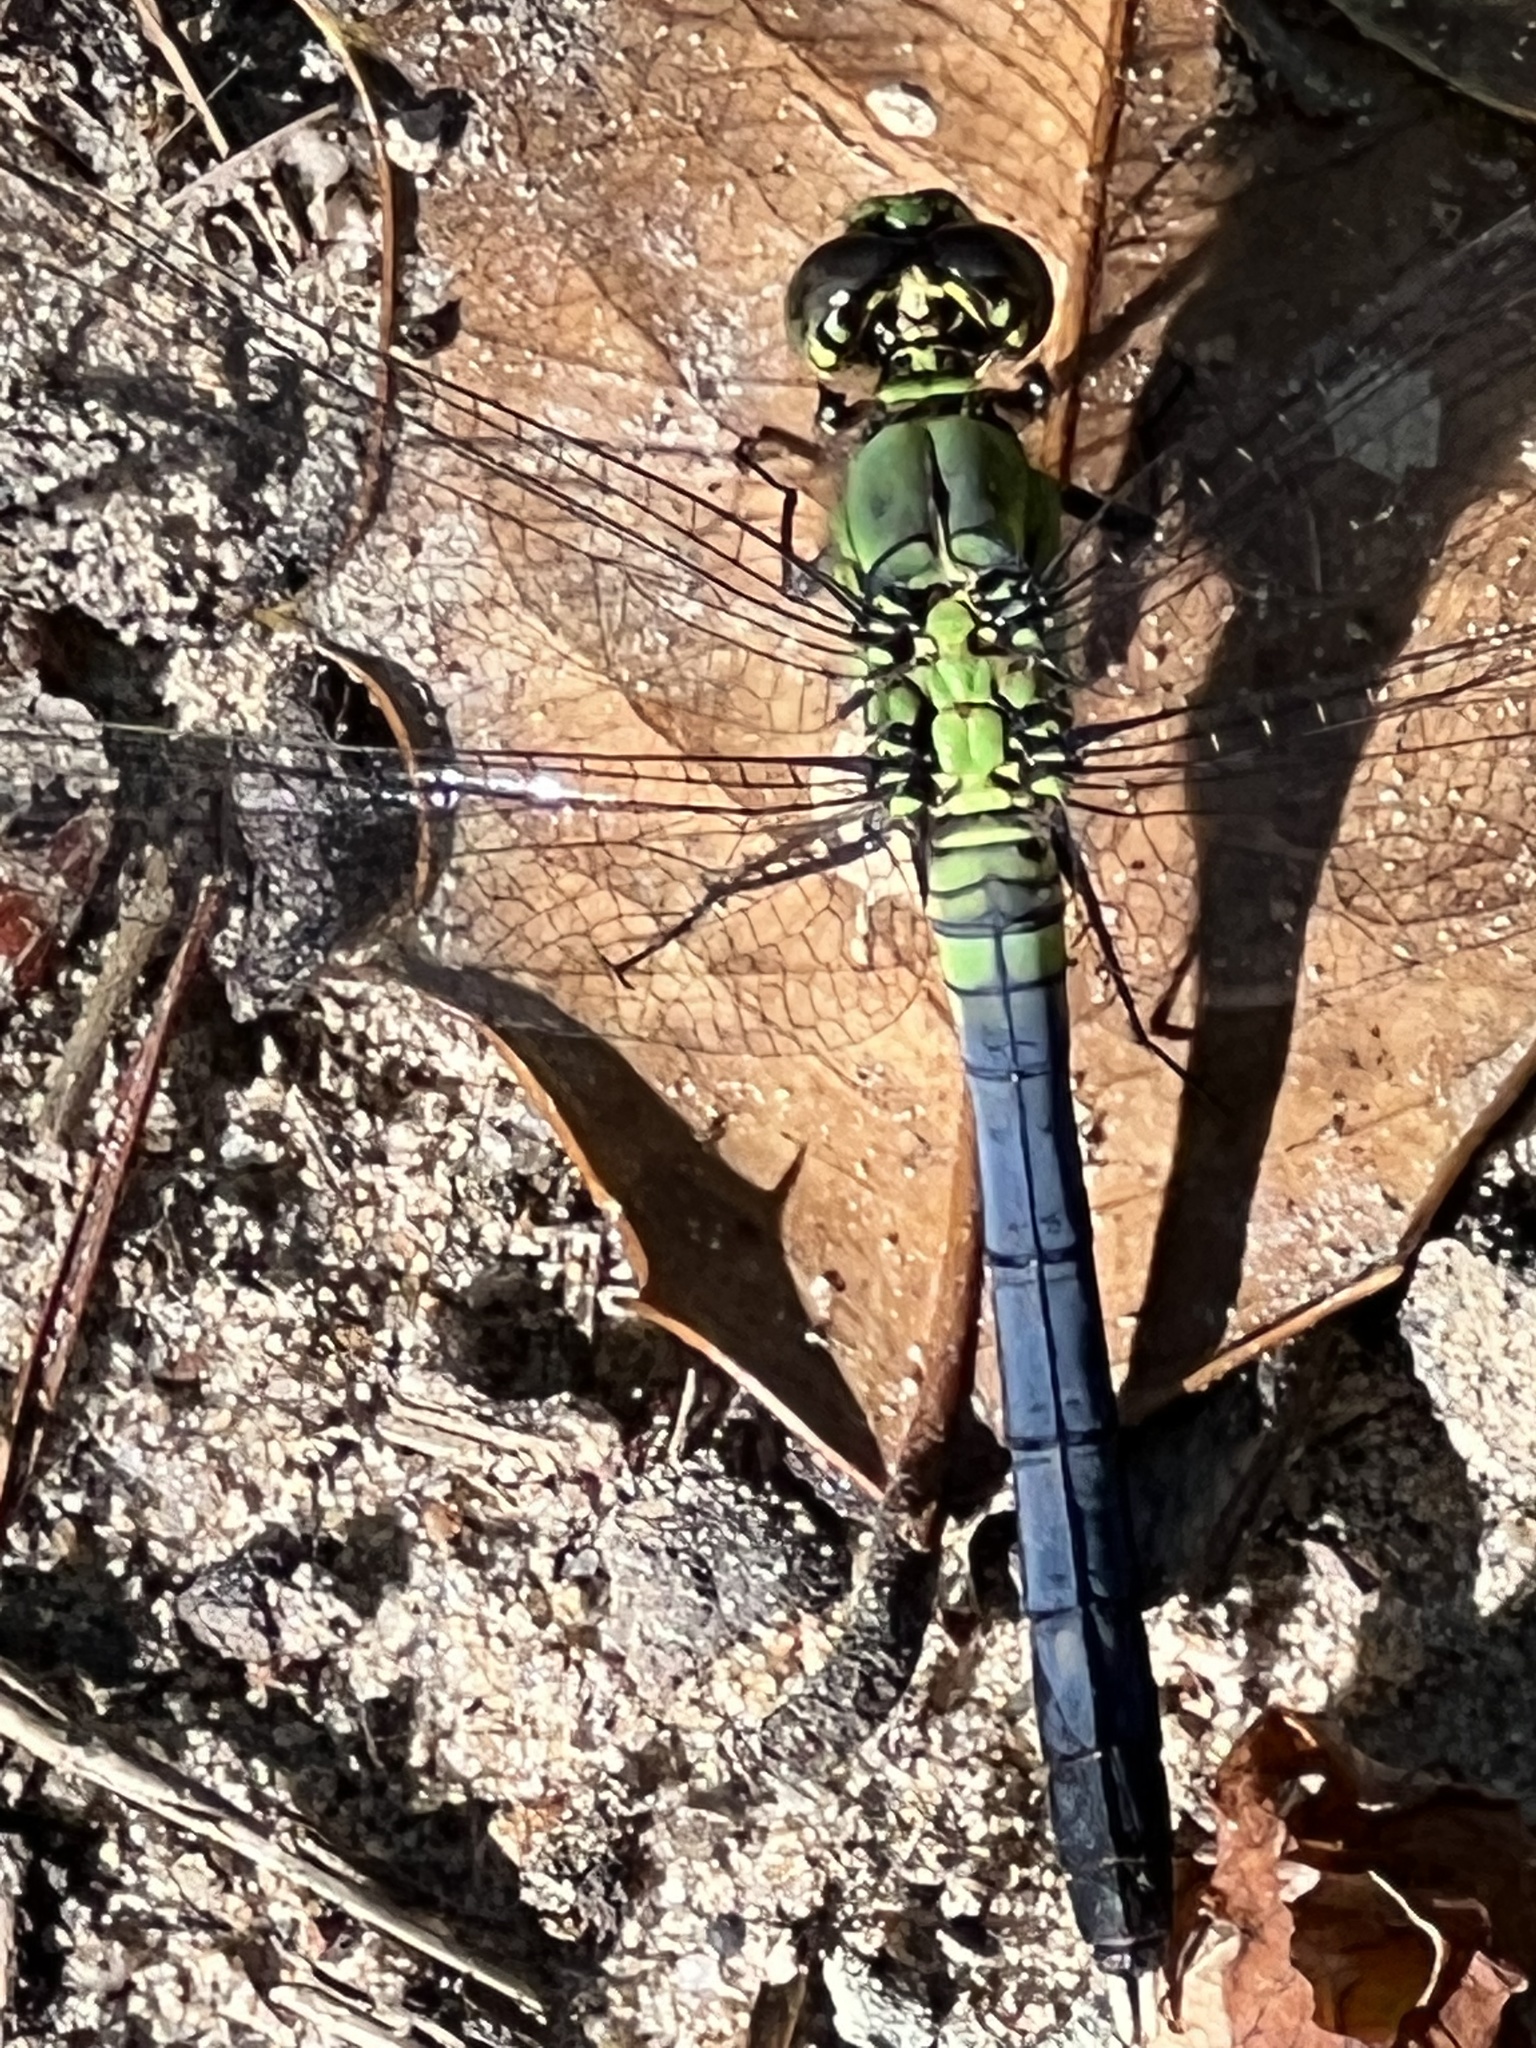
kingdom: Animalia
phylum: Arthropoda
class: Insecta
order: Odonata
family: Libellulidae
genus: Erythemis
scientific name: Erythemis simplicicollis
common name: Eastern pondhawk
